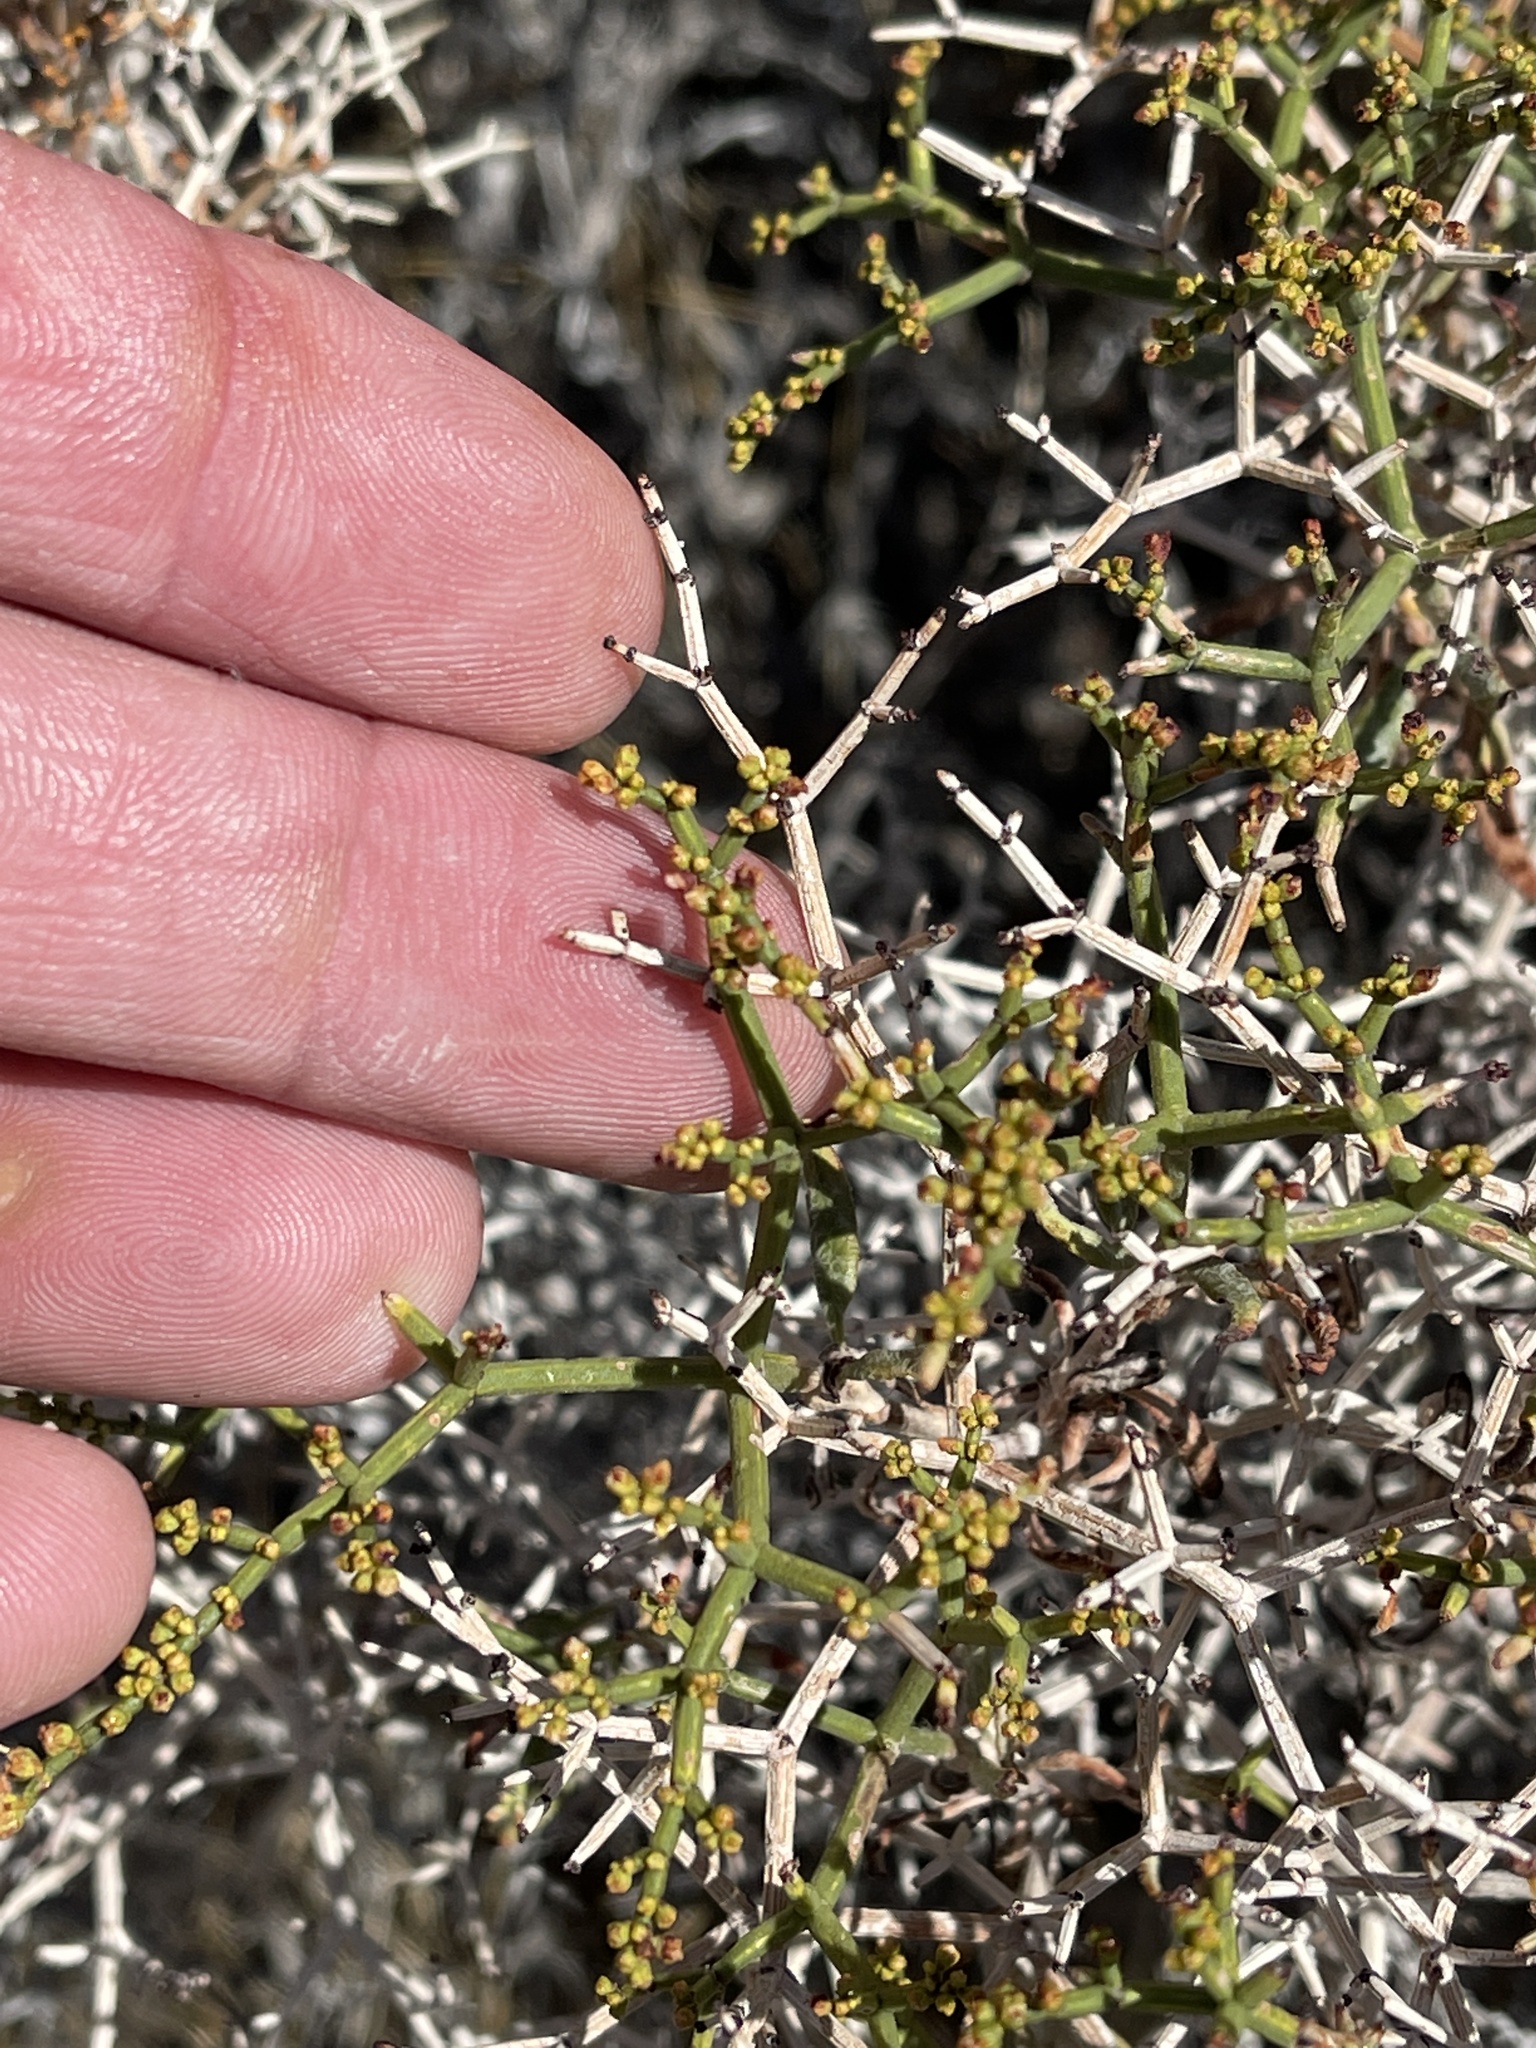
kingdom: Plantae
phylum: Tracheophyta
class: Magnoliopsida
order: Caryophyllales
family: Polygonaceae
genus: Eriogonum
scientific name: Eriogonum heermannii
